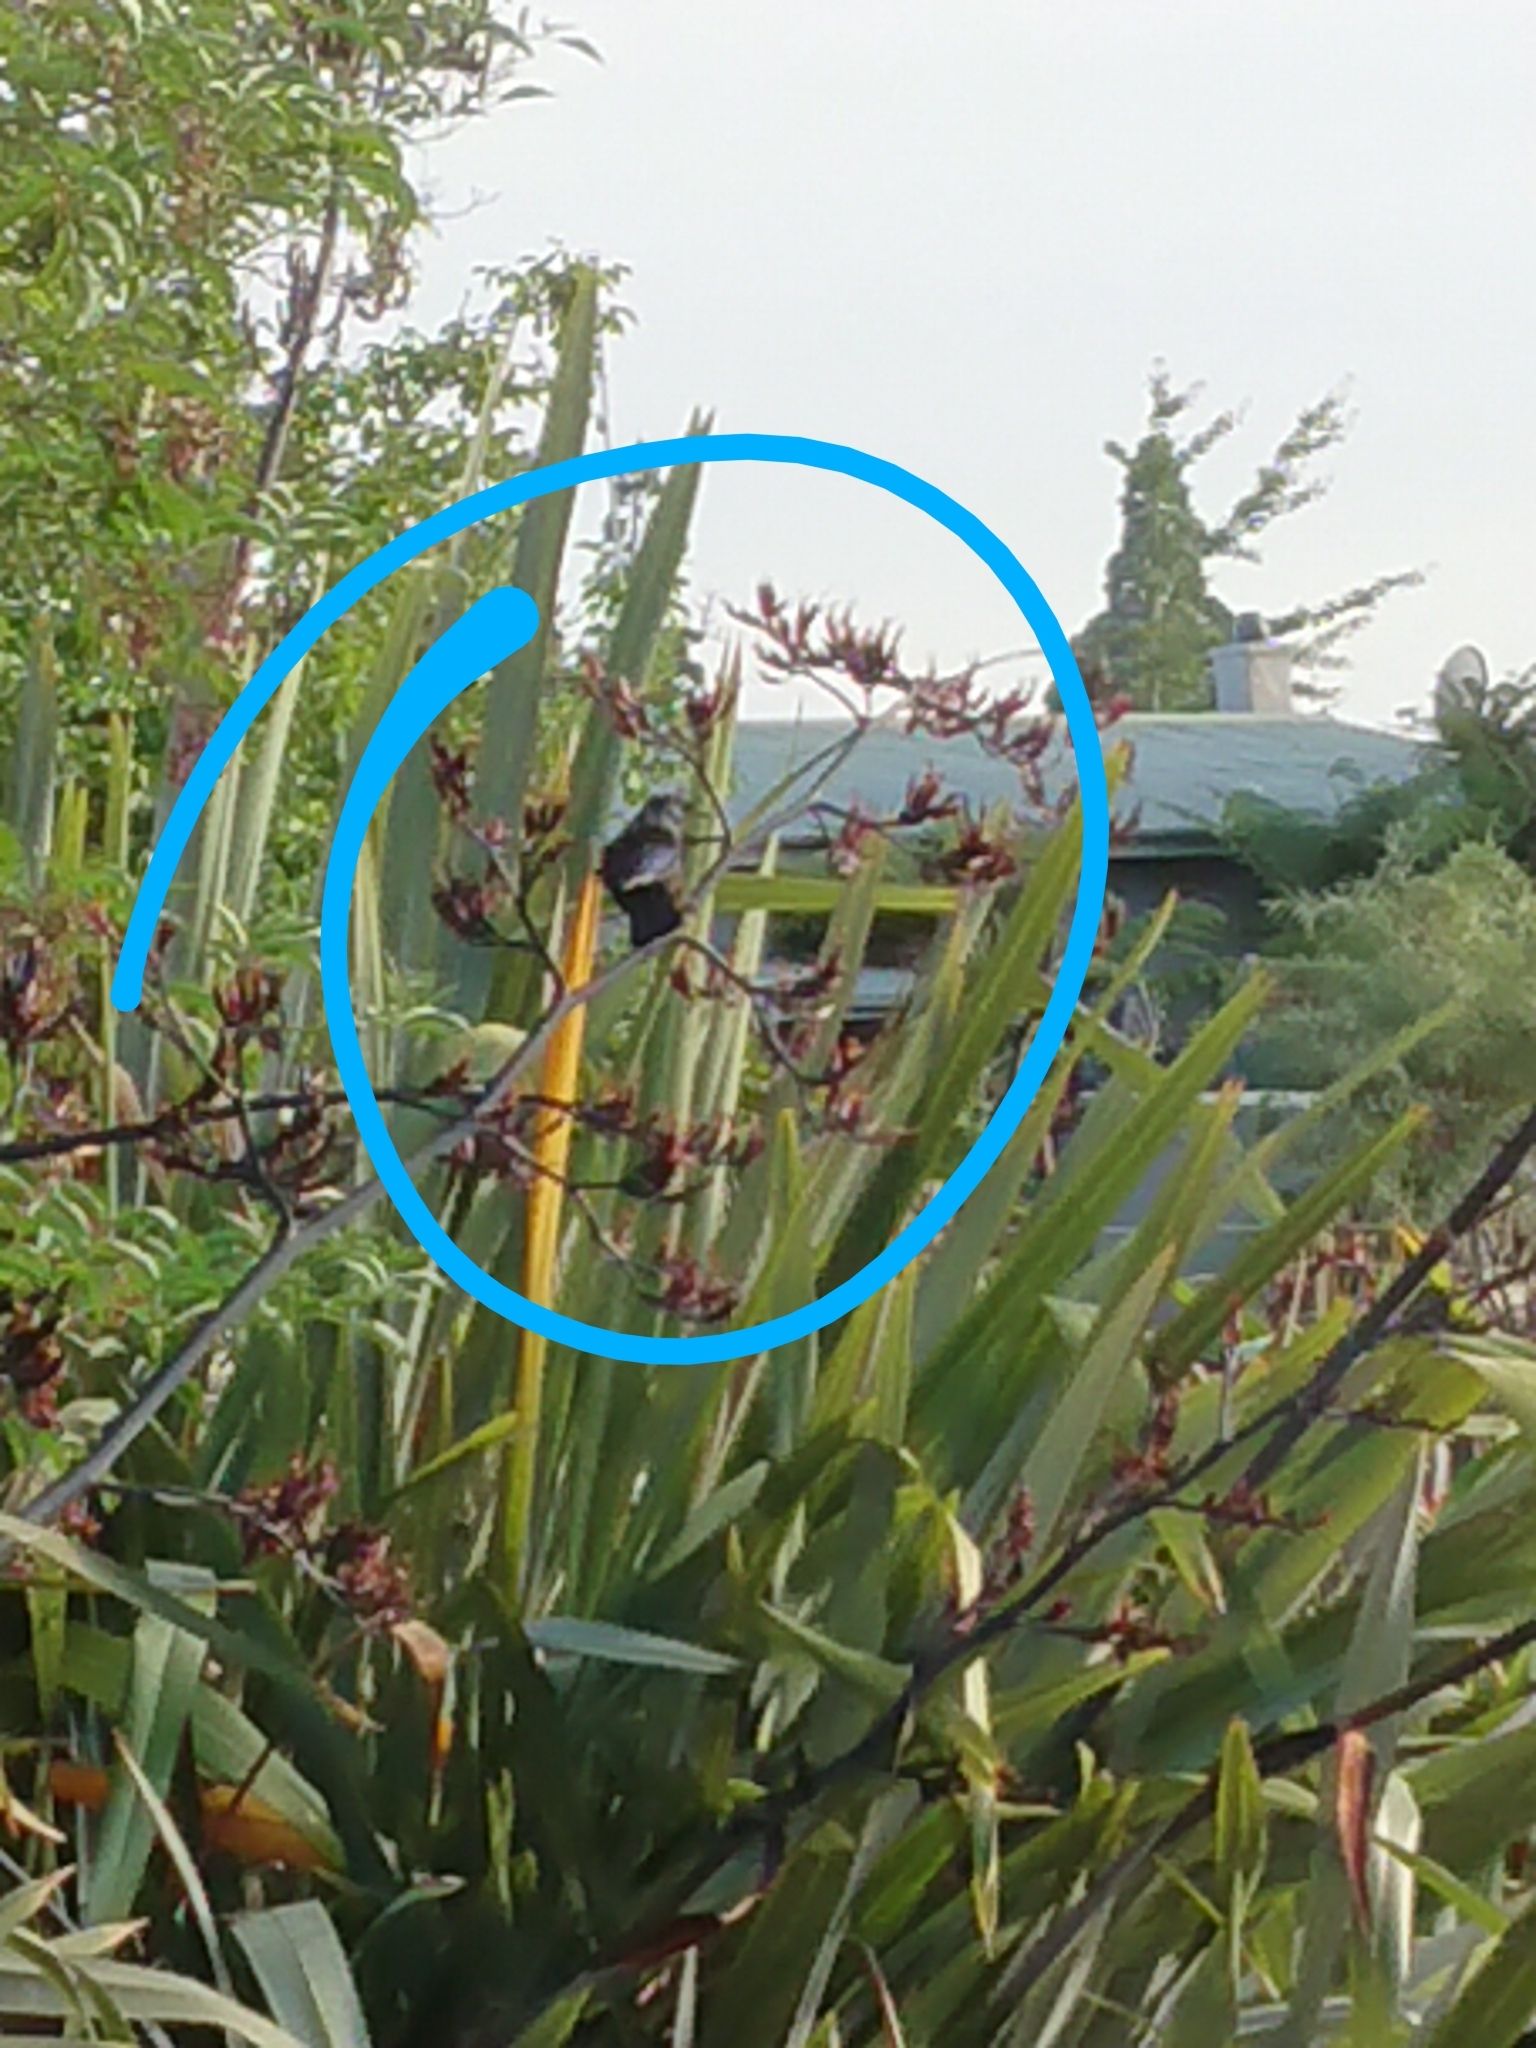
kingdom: Animalia
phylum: Chordata
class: Aves
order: Passeriformes
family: Meliphagidae
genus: Prosthemadera
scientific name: Prosthemadera novaeseelandiae
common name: Tui
